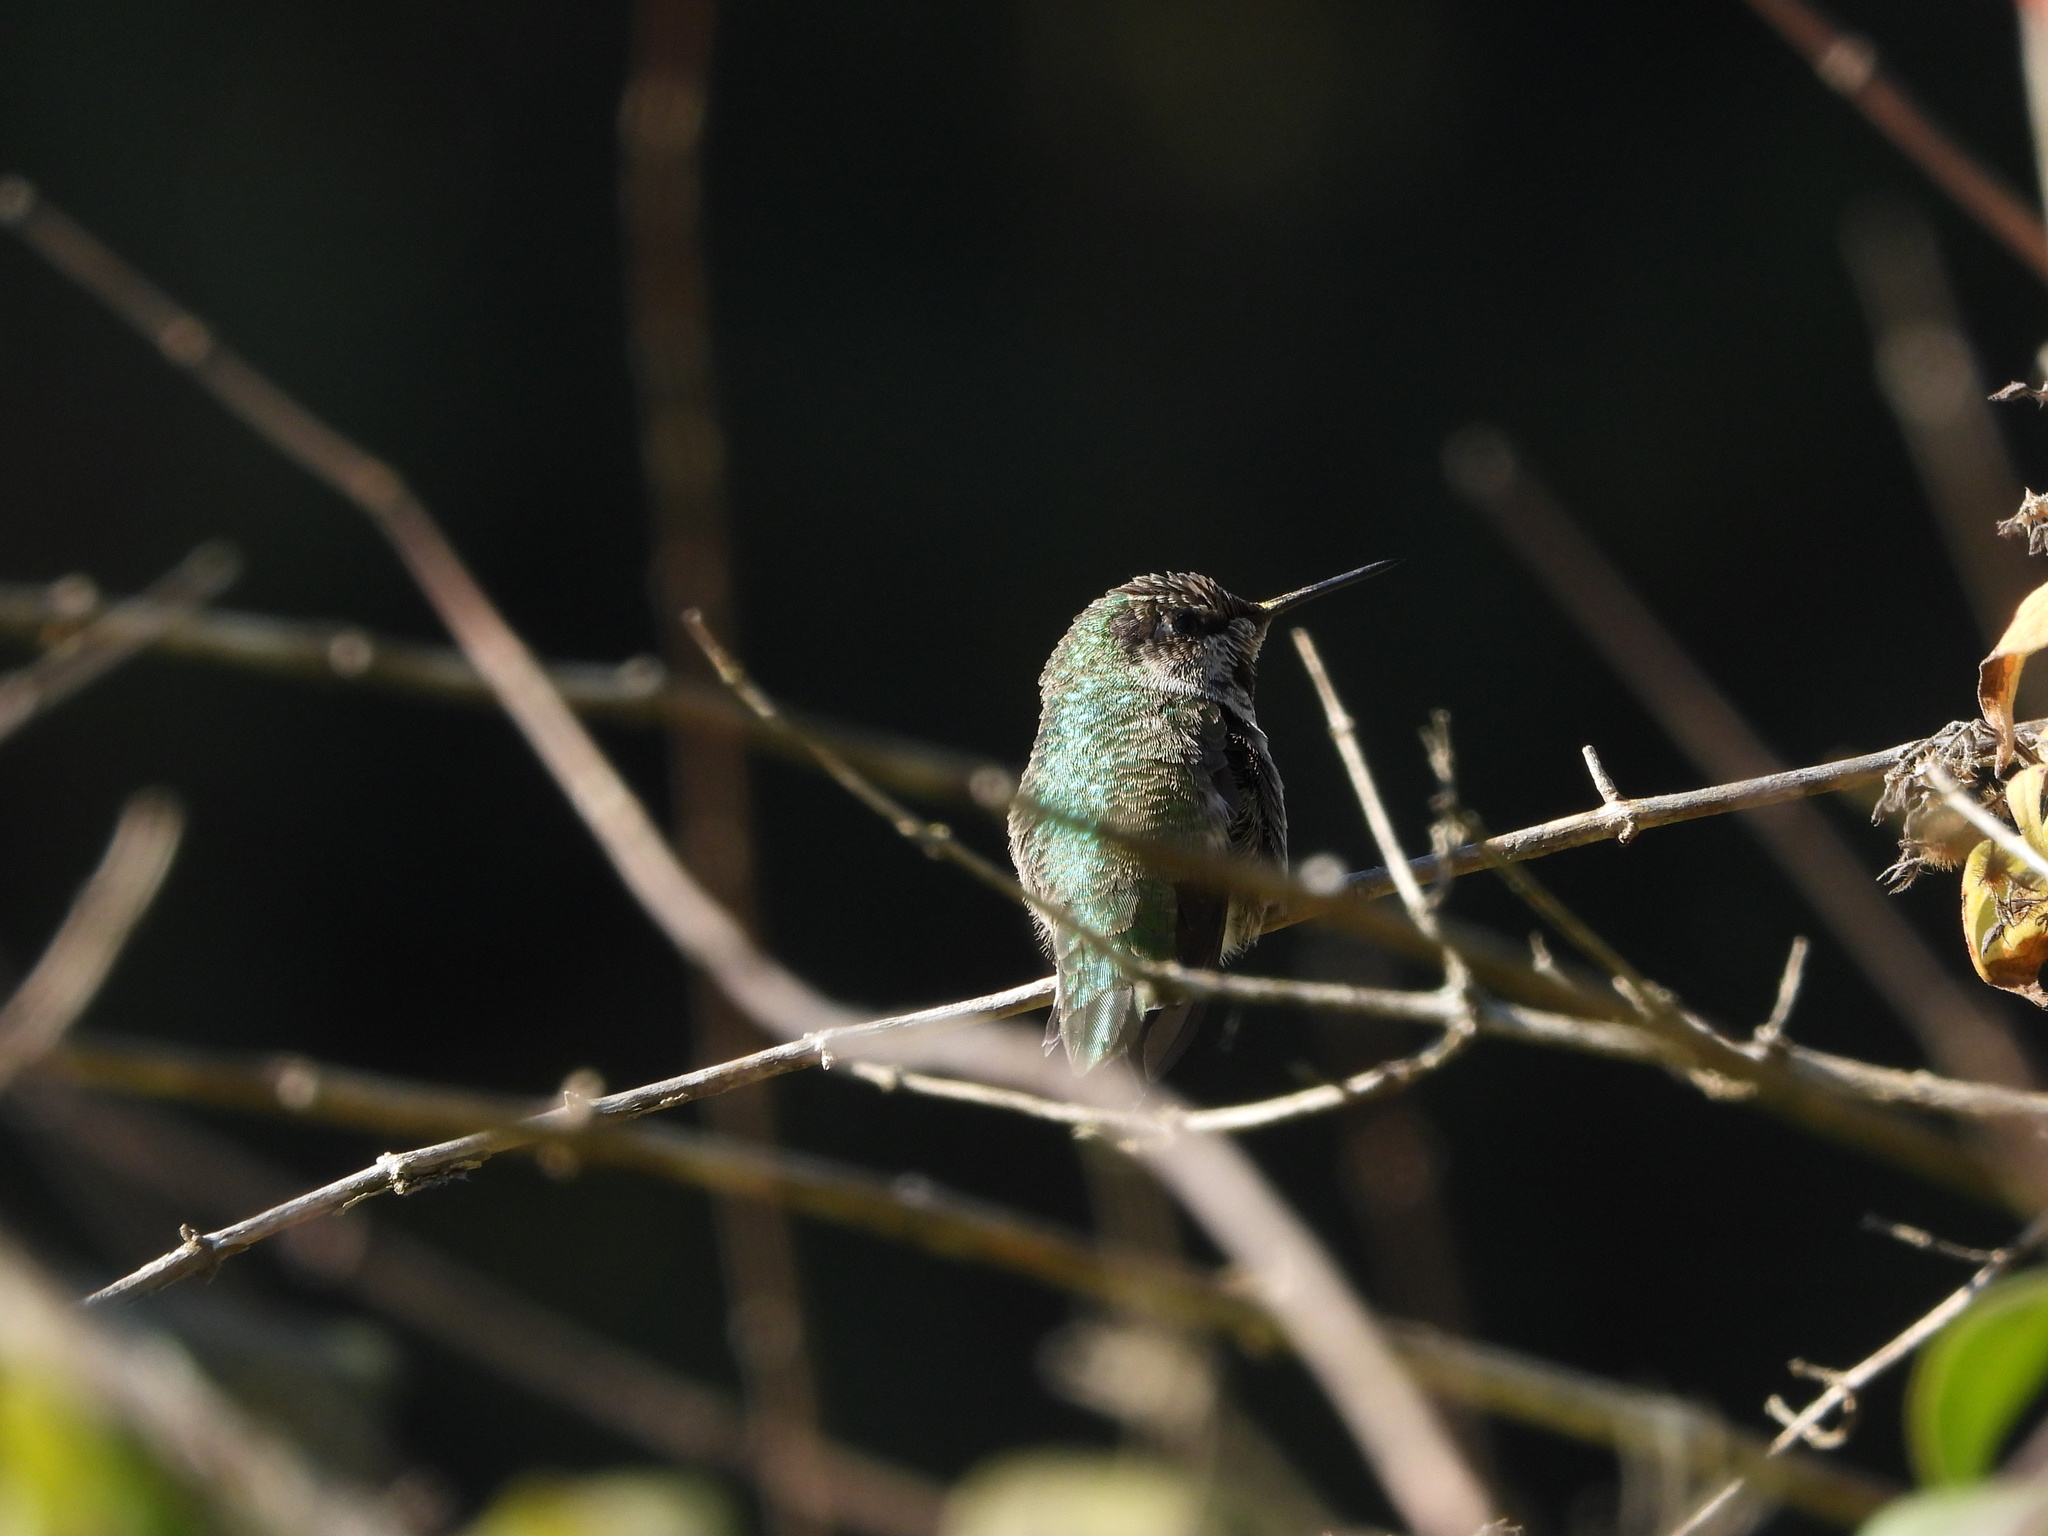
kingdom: Animalia
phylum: Chordata
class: Aves
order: Apodiformes
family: Trochilidae
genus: Calypte
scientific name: Calypte anna
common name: Anna's hummingbird
